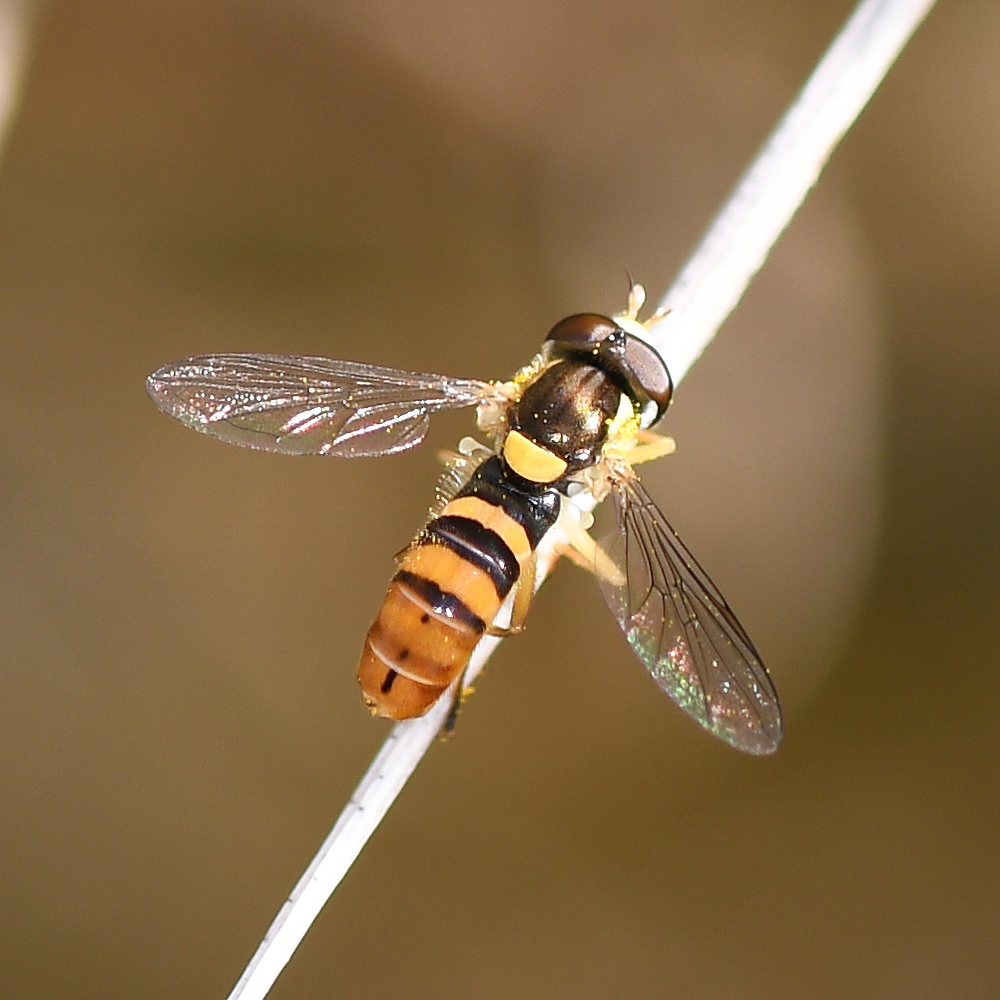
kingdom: Animalia
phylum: Arthropoda
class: Insecta
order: Diptera
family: Syrphidae
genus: Sphaerophoria
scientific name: Sphaerophoria sulphuripes
